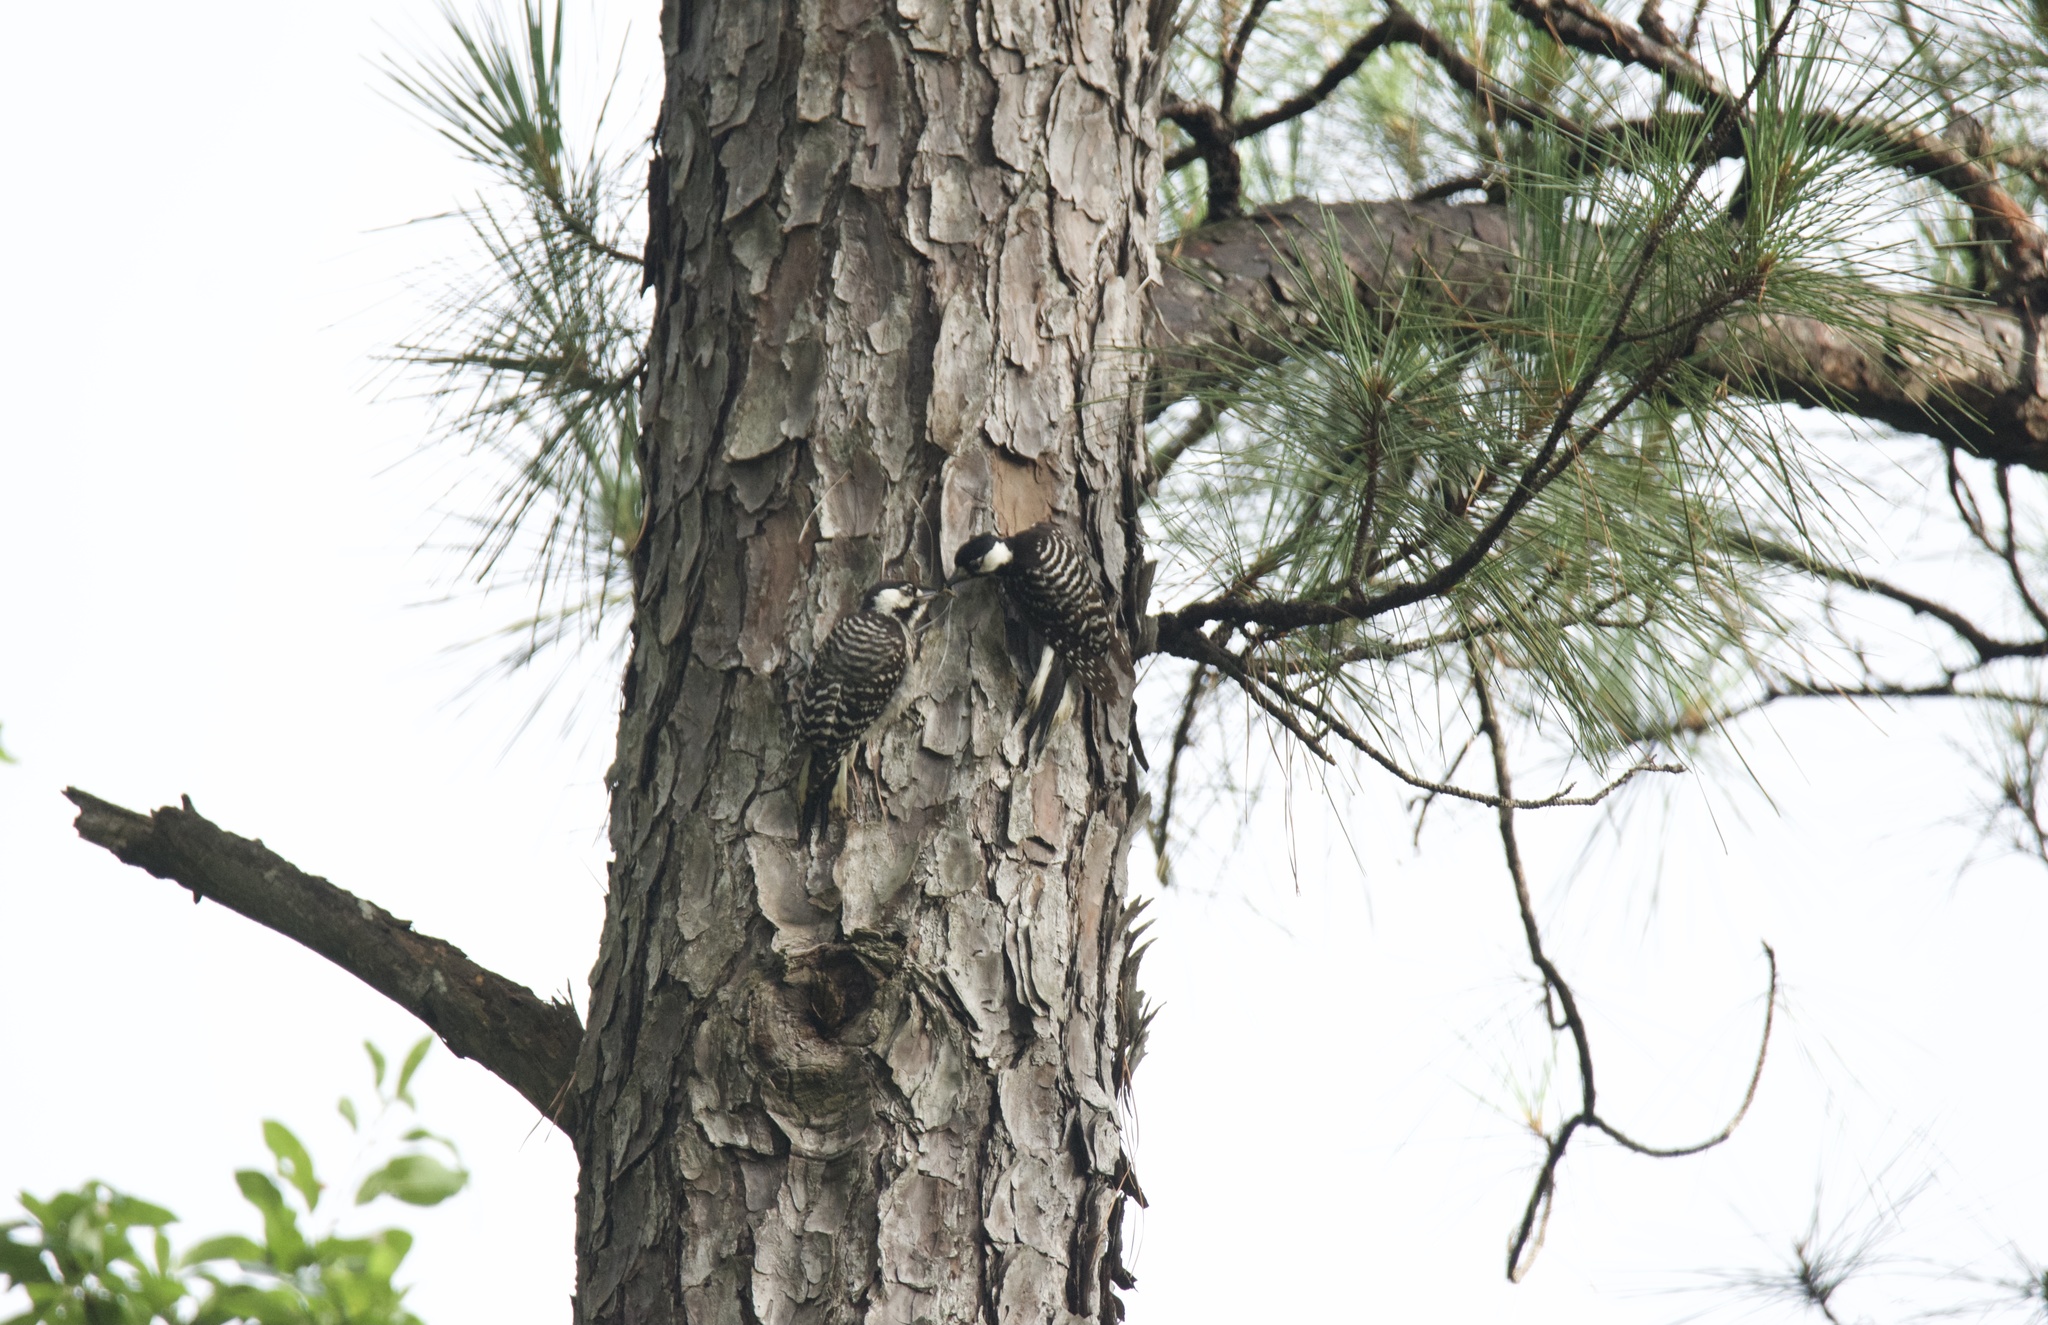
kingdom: Animalia
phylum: Chordata
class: Aves
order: Piciformes
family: Picidae
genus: Leuconotopicus
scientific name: Leuconotopicus borealis
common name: Red-cockaded woodpecker
